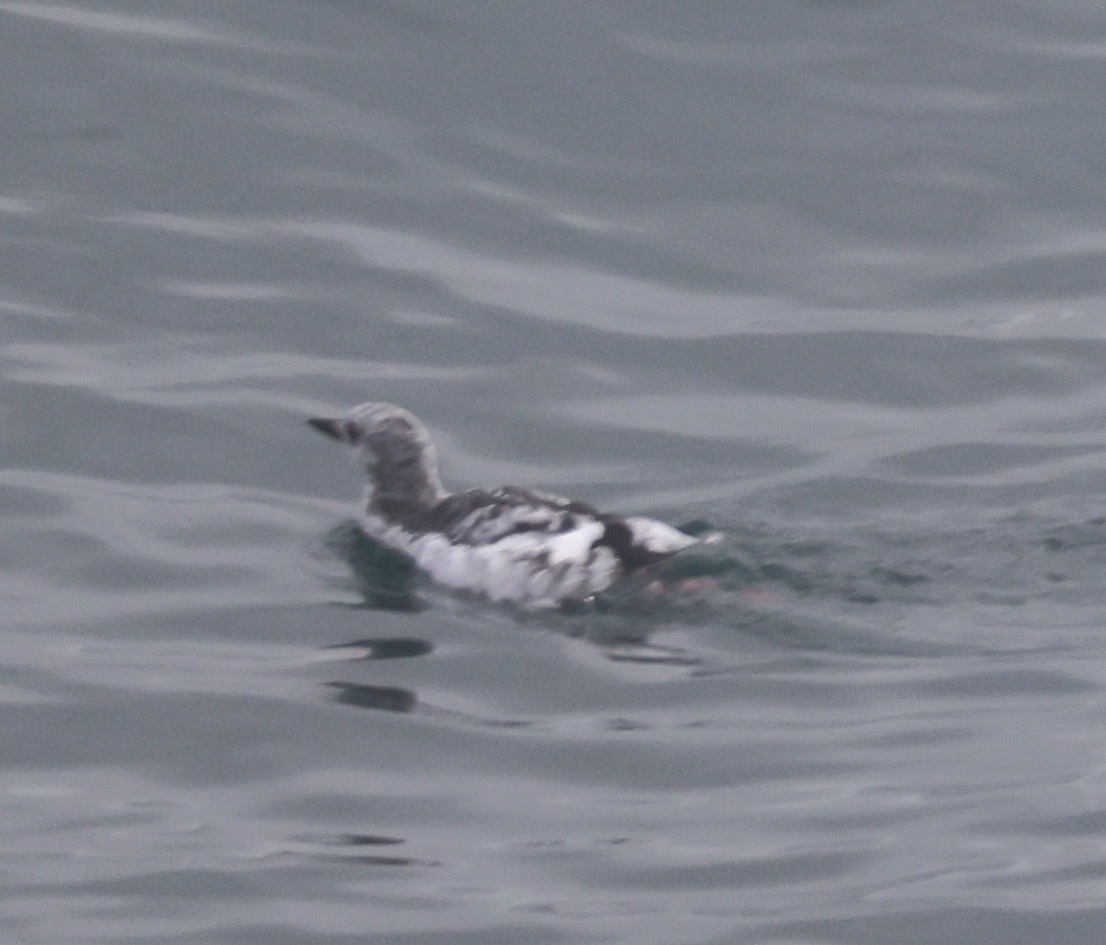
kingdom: Animalia
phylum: Chordata
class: Aves
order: Charadriiformes
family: Alcidae
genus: Cepphus
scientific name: Cepphus grylle
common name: Black guillemot
